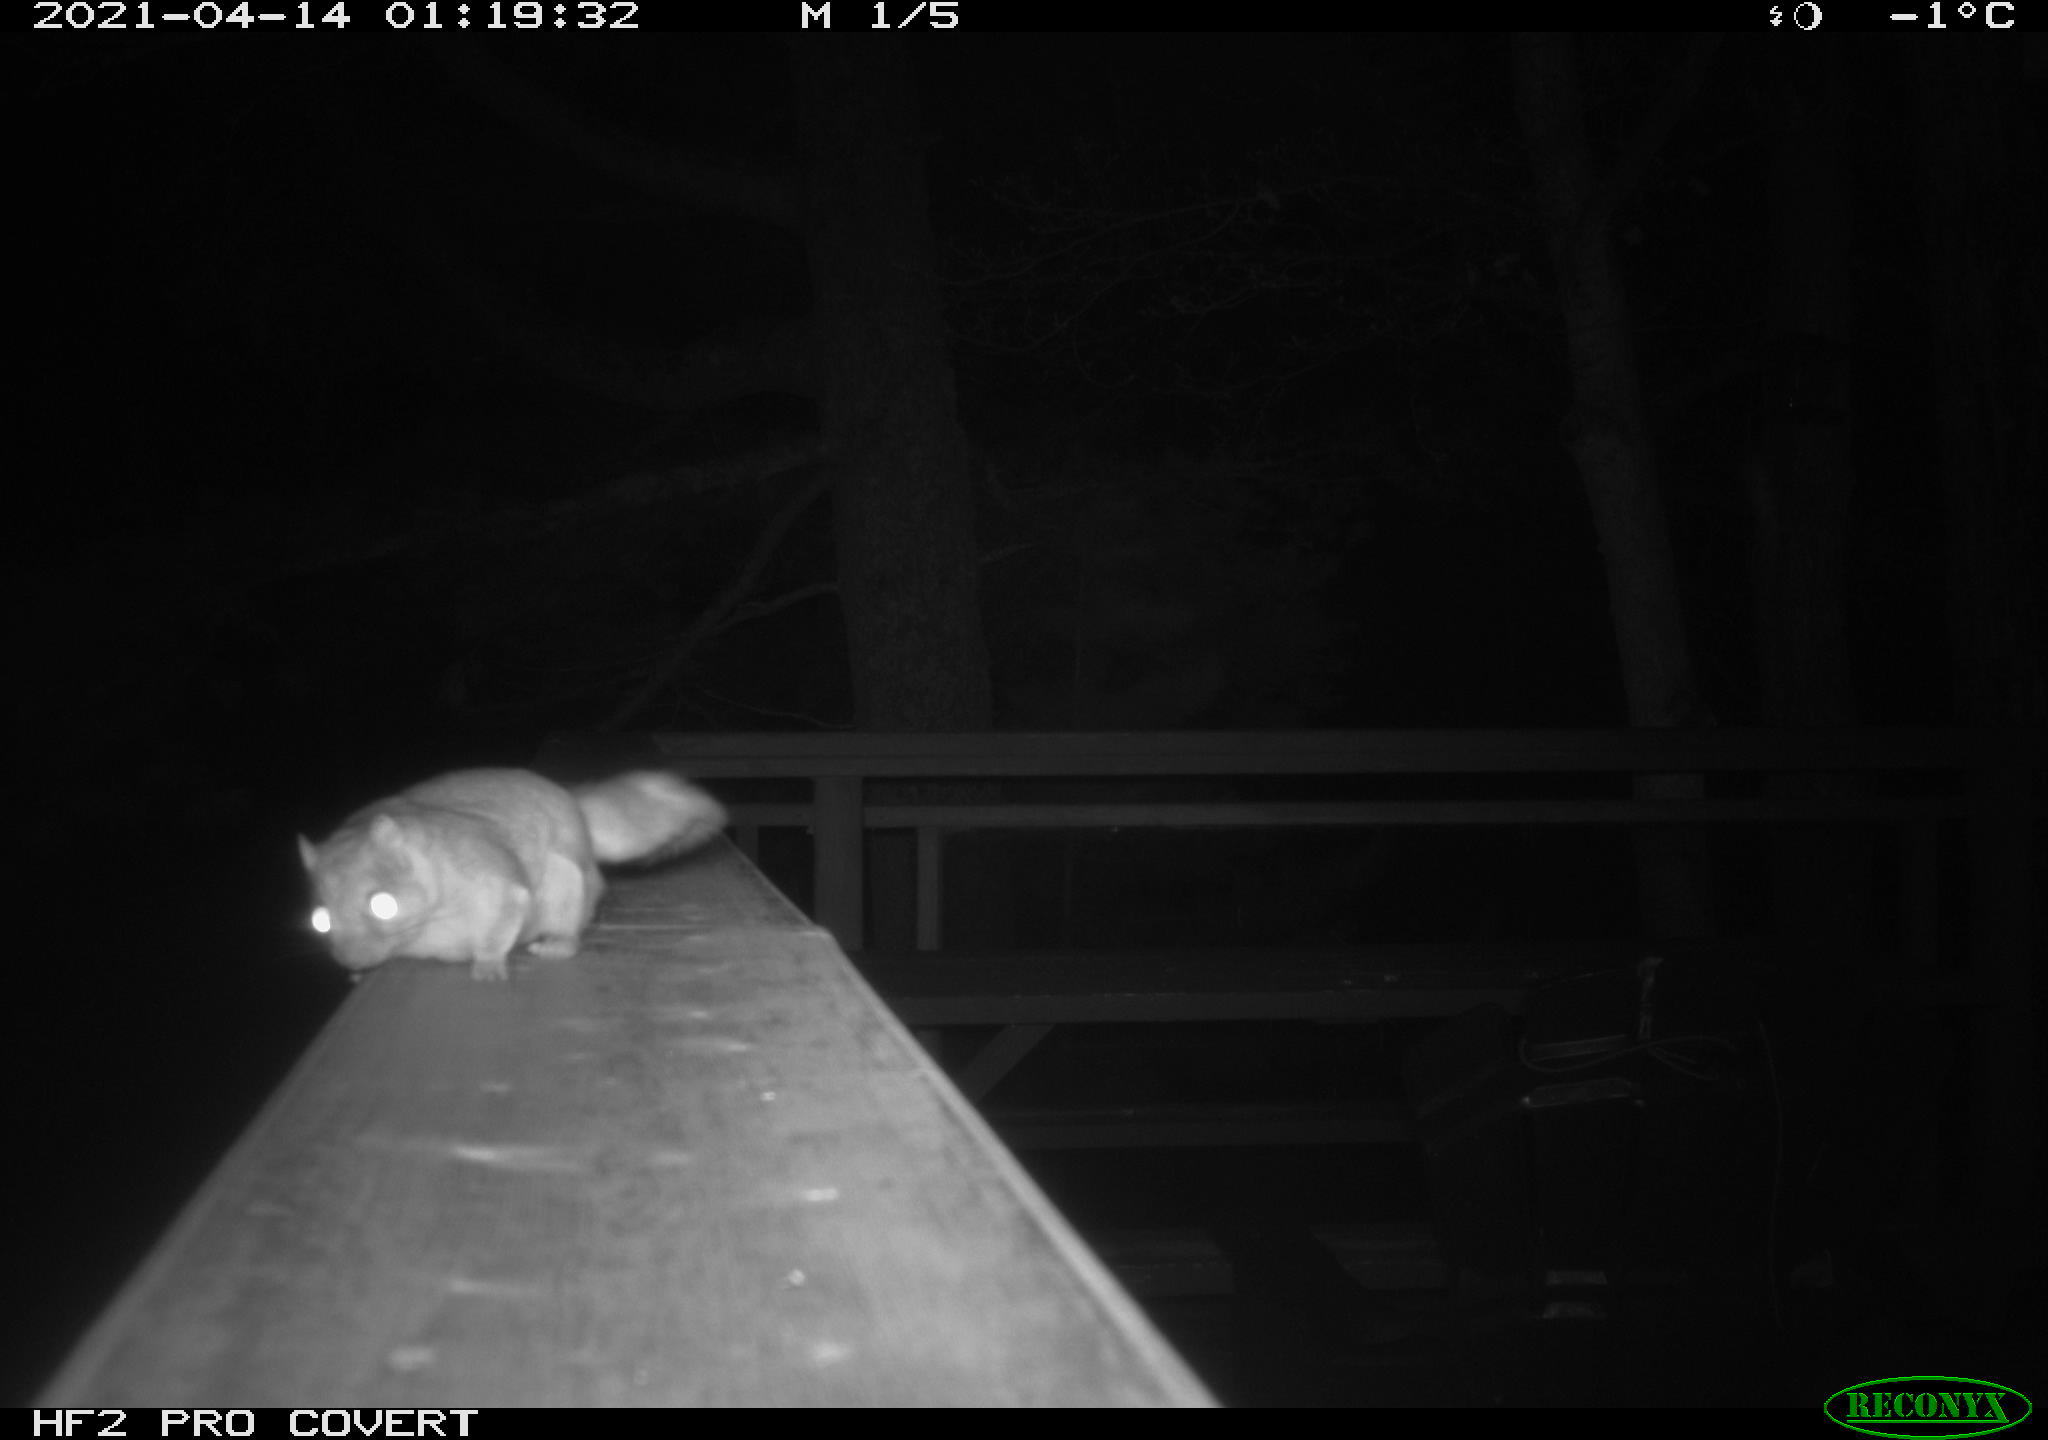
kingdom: Animalia
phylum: Chordata
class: Mammalia
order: Rodentia
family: Sciuridae
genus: Glaucomys
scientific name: Glaucomys sabrinus
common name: Northern flying squirrel
